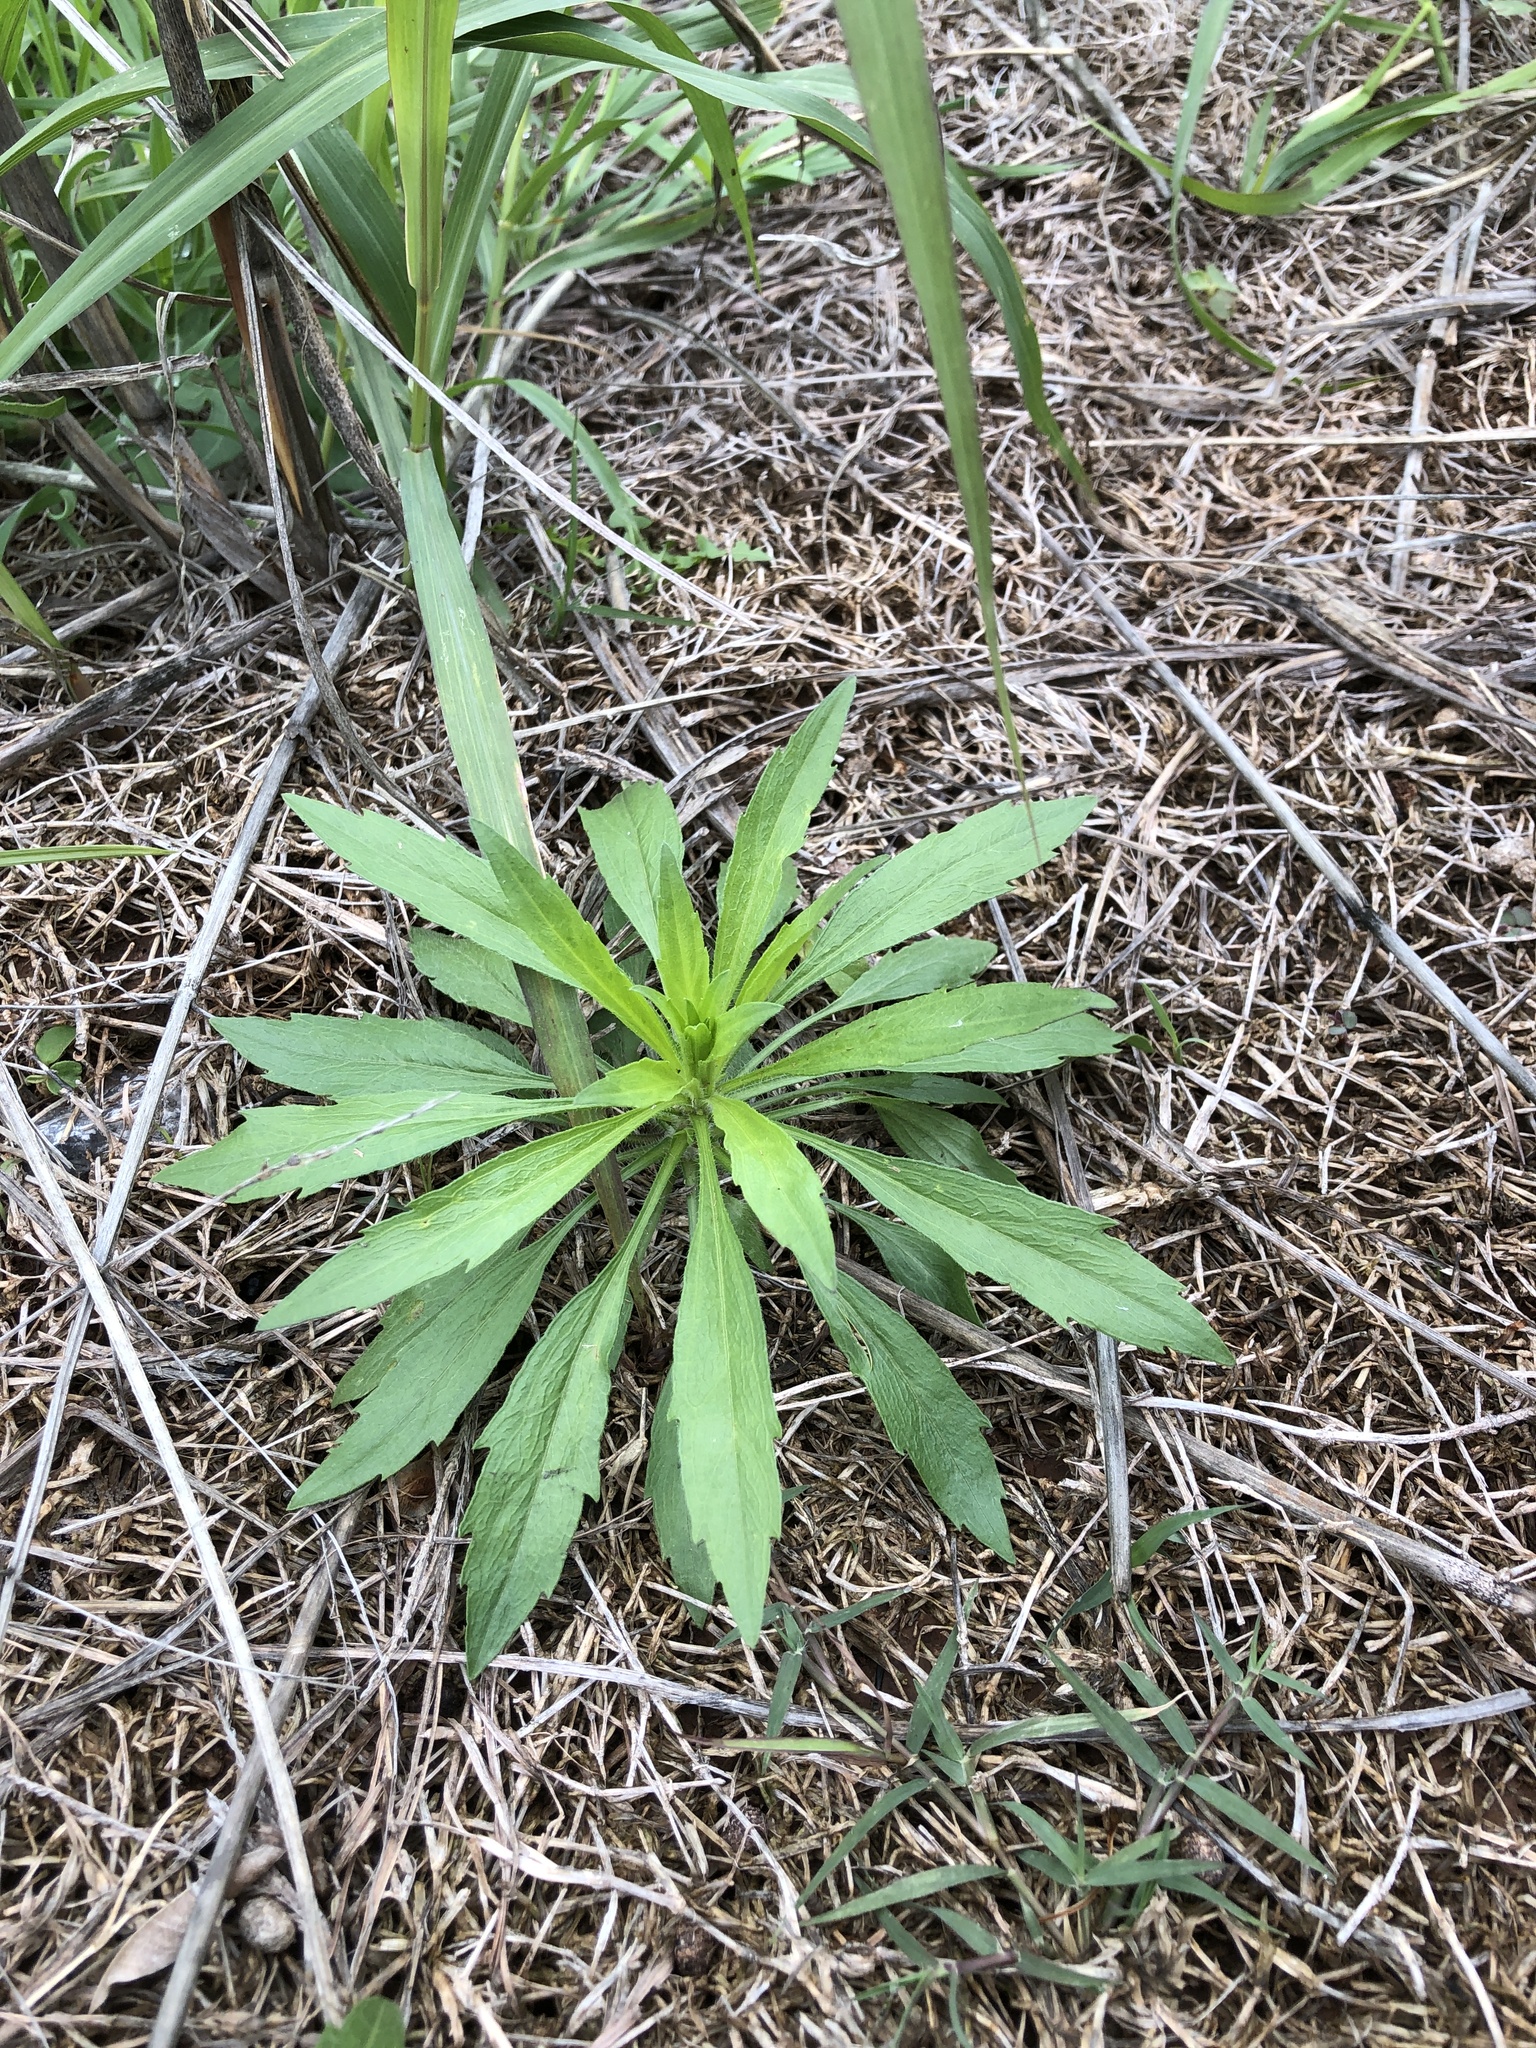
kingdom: Plantae
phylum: Tracheophyta
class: Magnoliopsida
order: Asterales
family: Asteraceae
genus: Erigeron
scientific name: Erigeron canadensis
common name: Canadian fleabane
